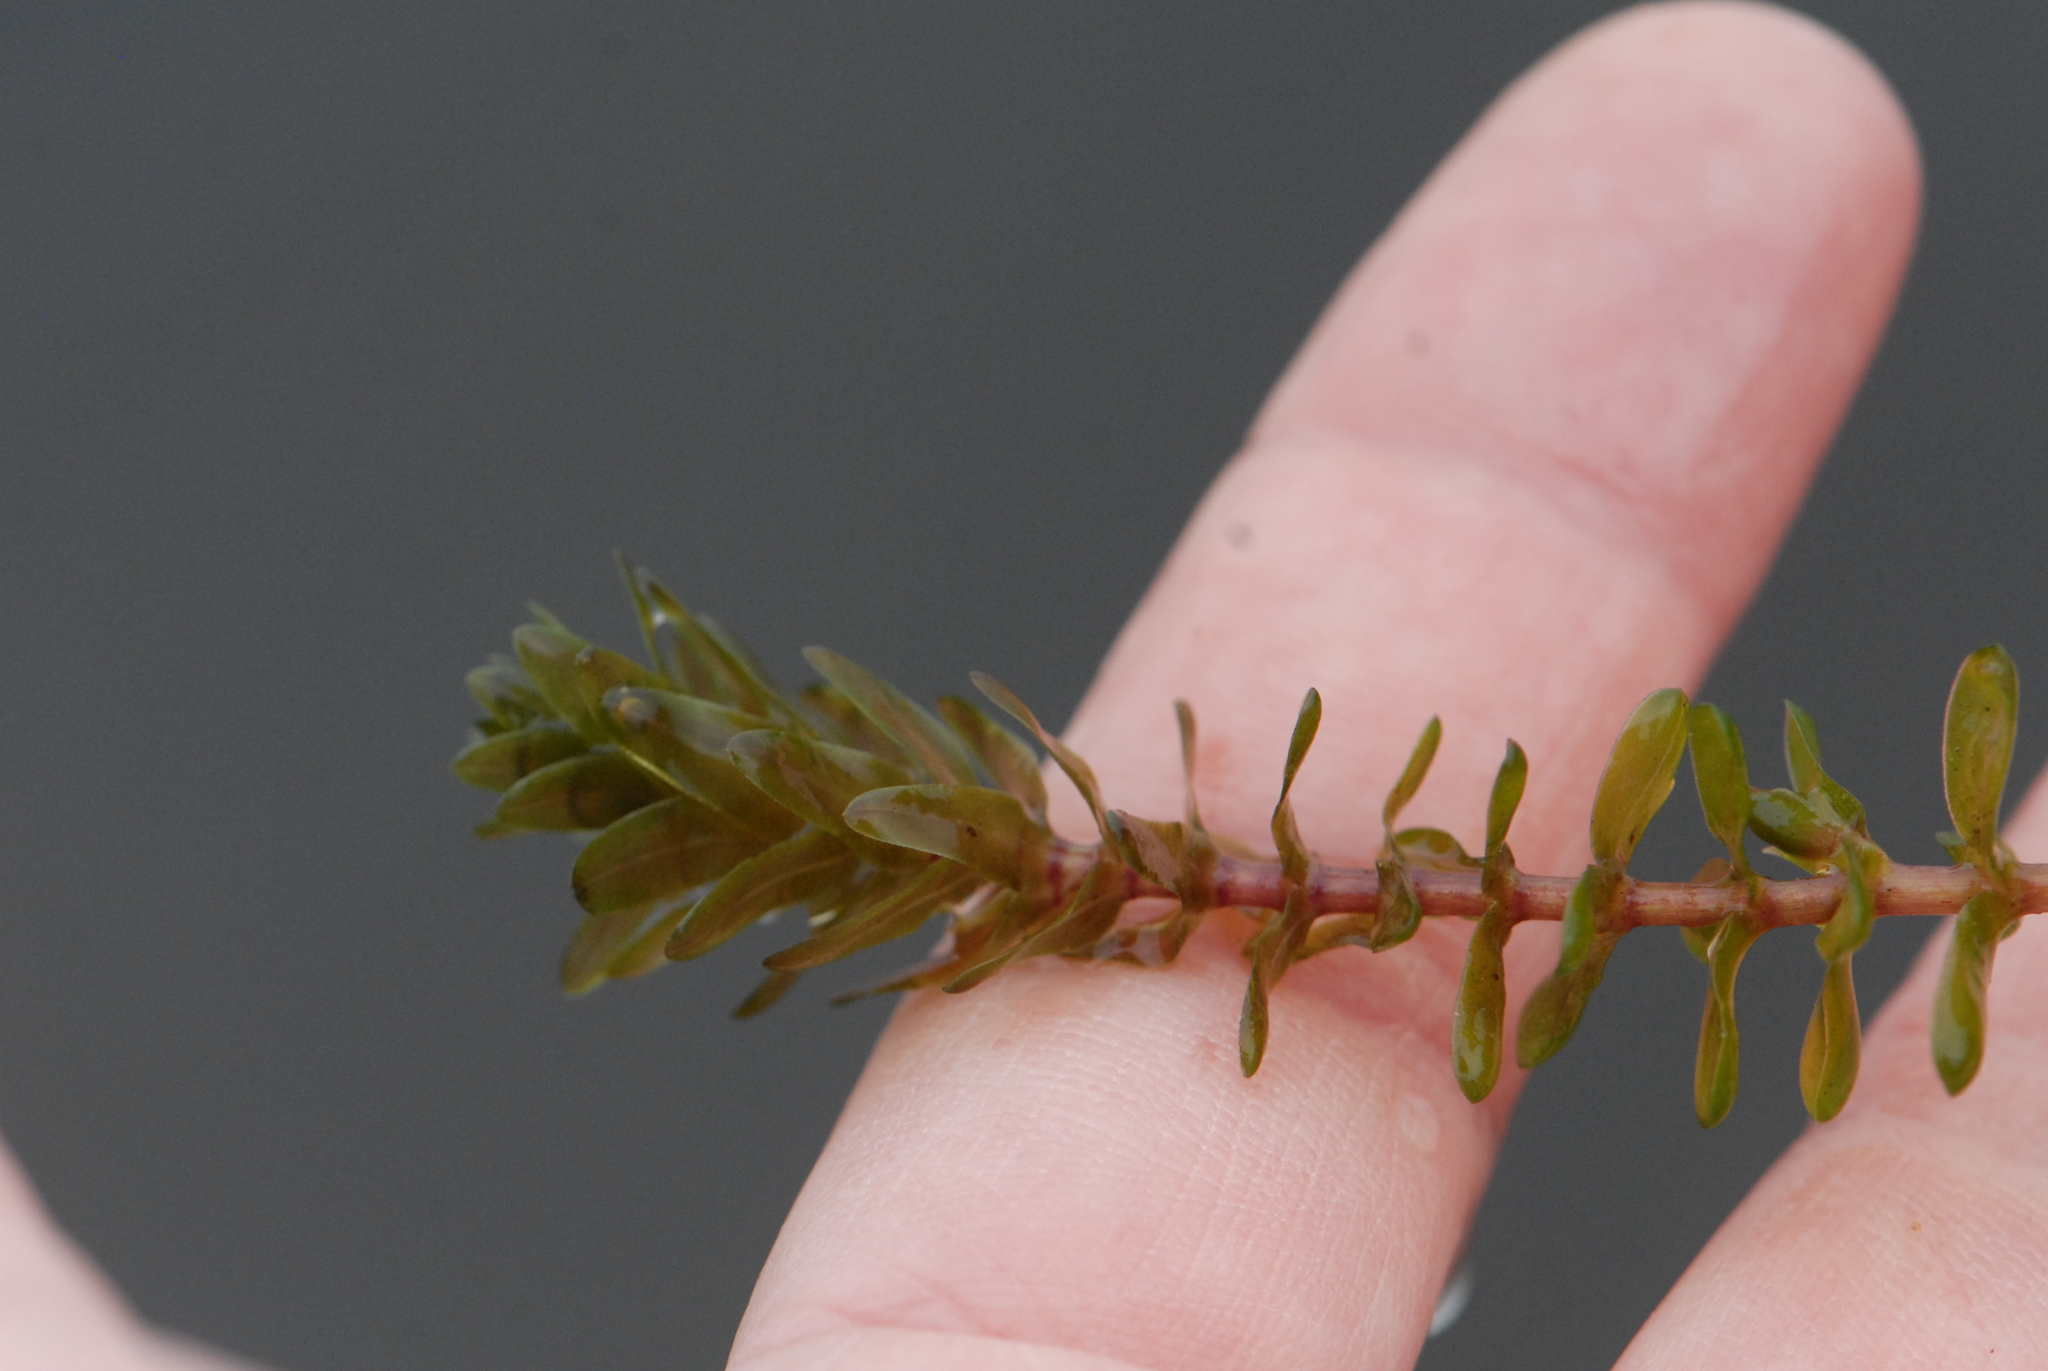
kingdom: Plantae
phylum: Tracheophyta
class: Liliopsida
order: Alismatales
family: Hydrocharitaceae
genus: Elodea
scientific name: Elodea canadensis
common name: Canadian waterweed
